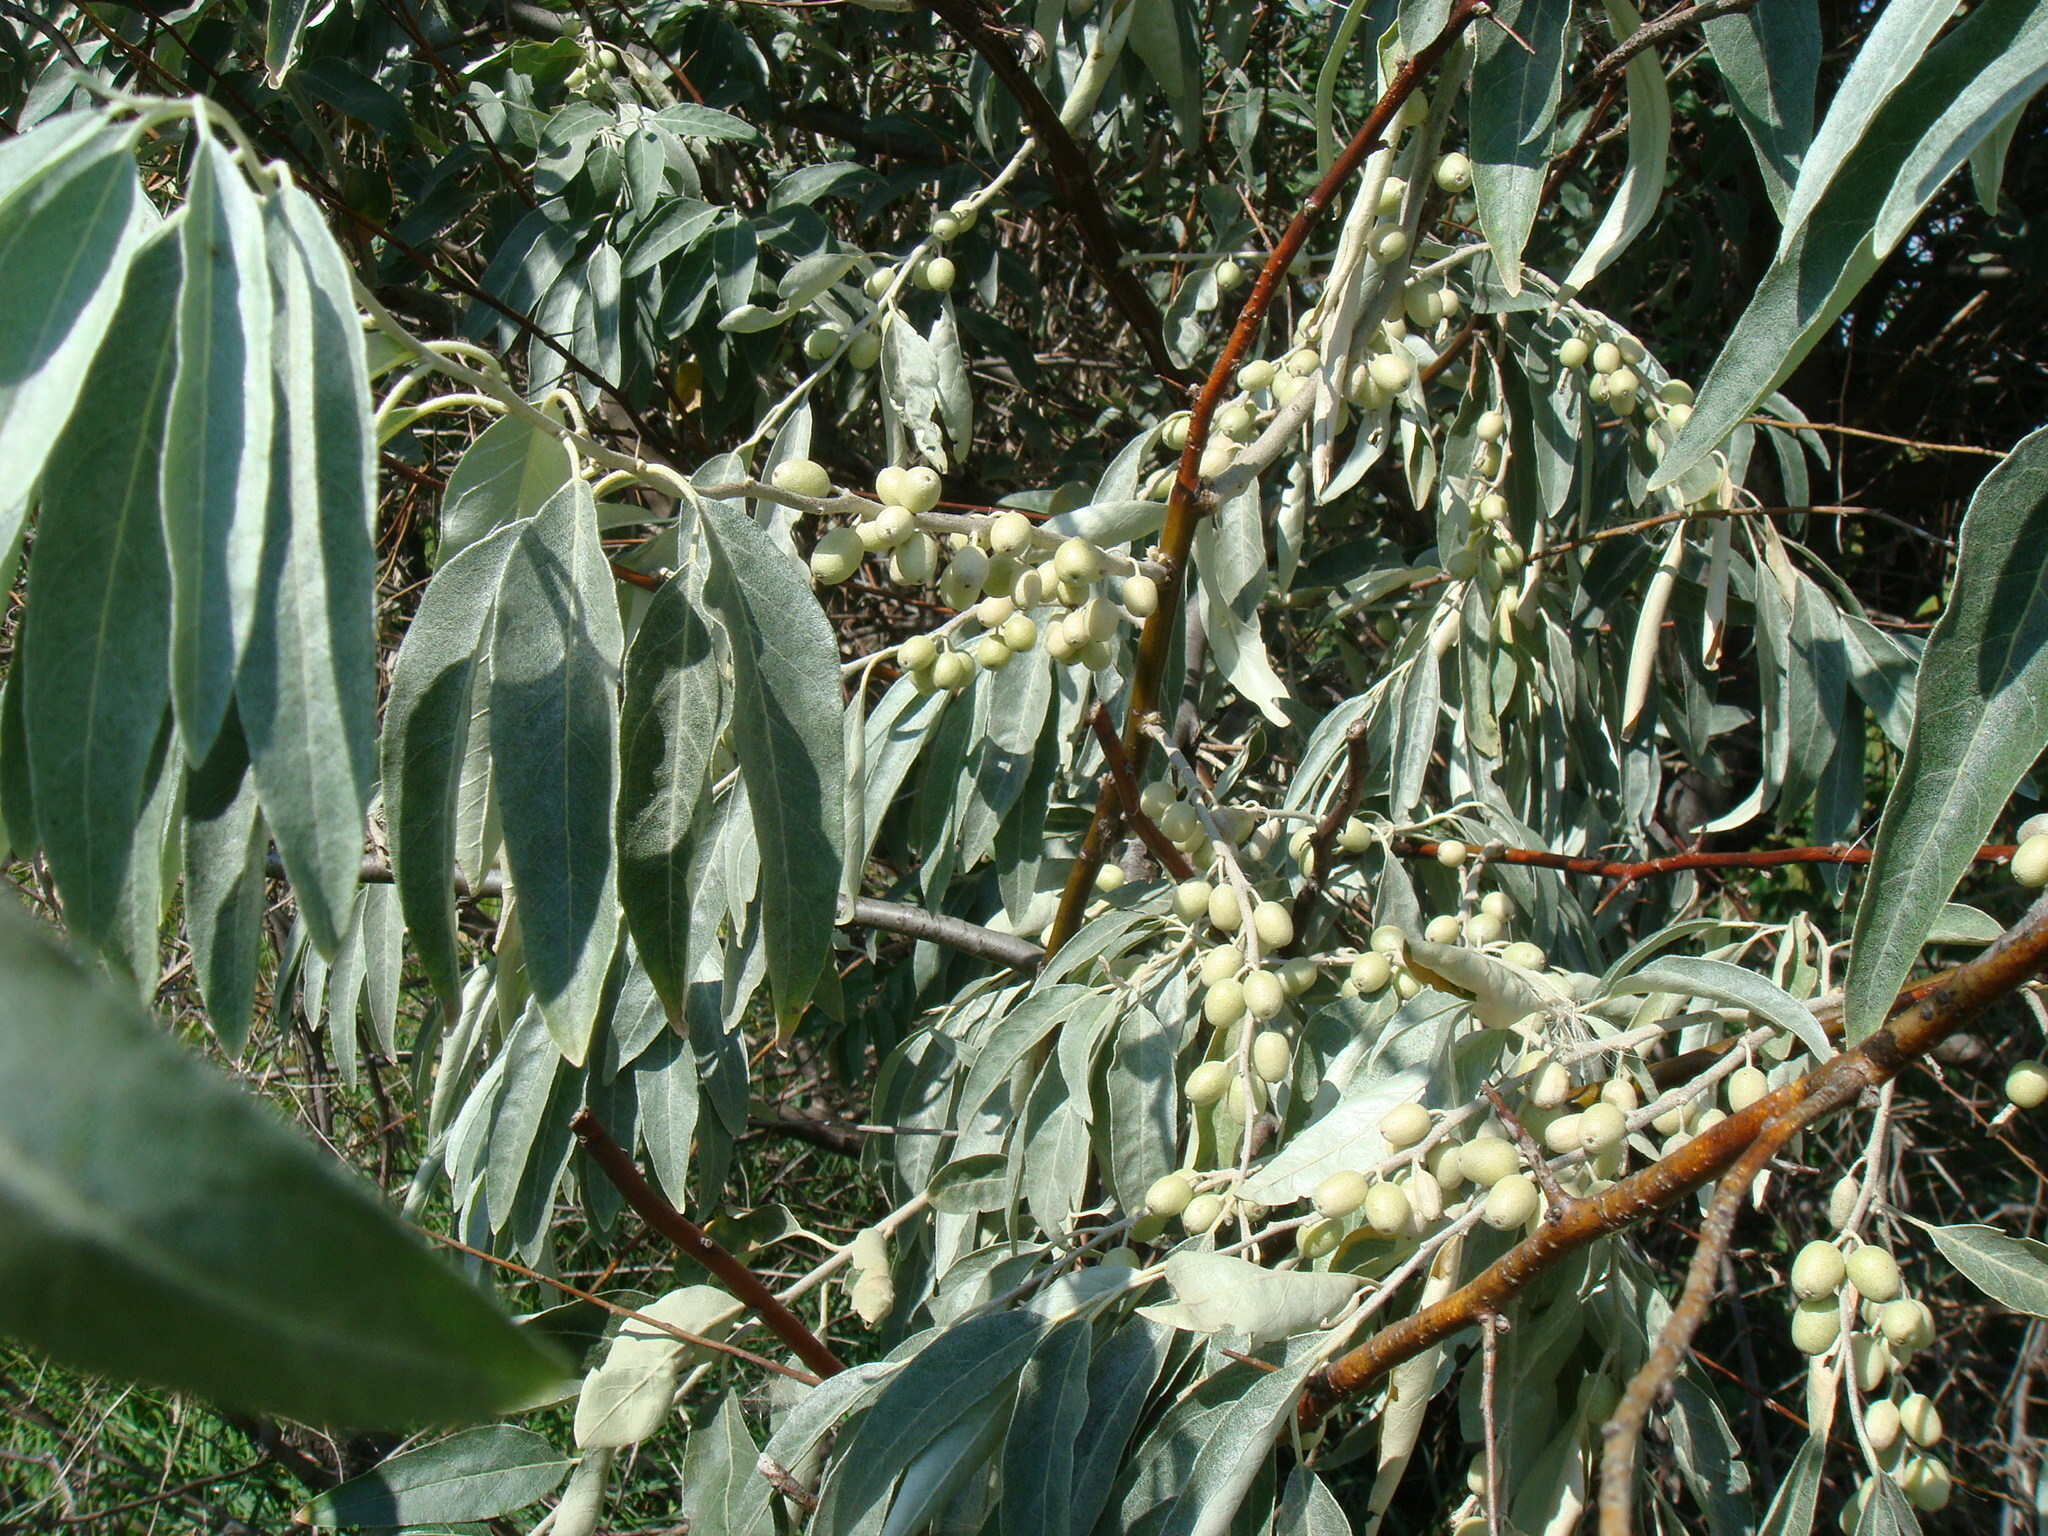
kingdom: Plantae
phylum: Tracheophyta
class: Magnoliopsida
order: Rosales
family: Elaeagnaceae
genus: Elaeagnus
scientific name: Elaeagnus angustifolia
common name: Russian olive
